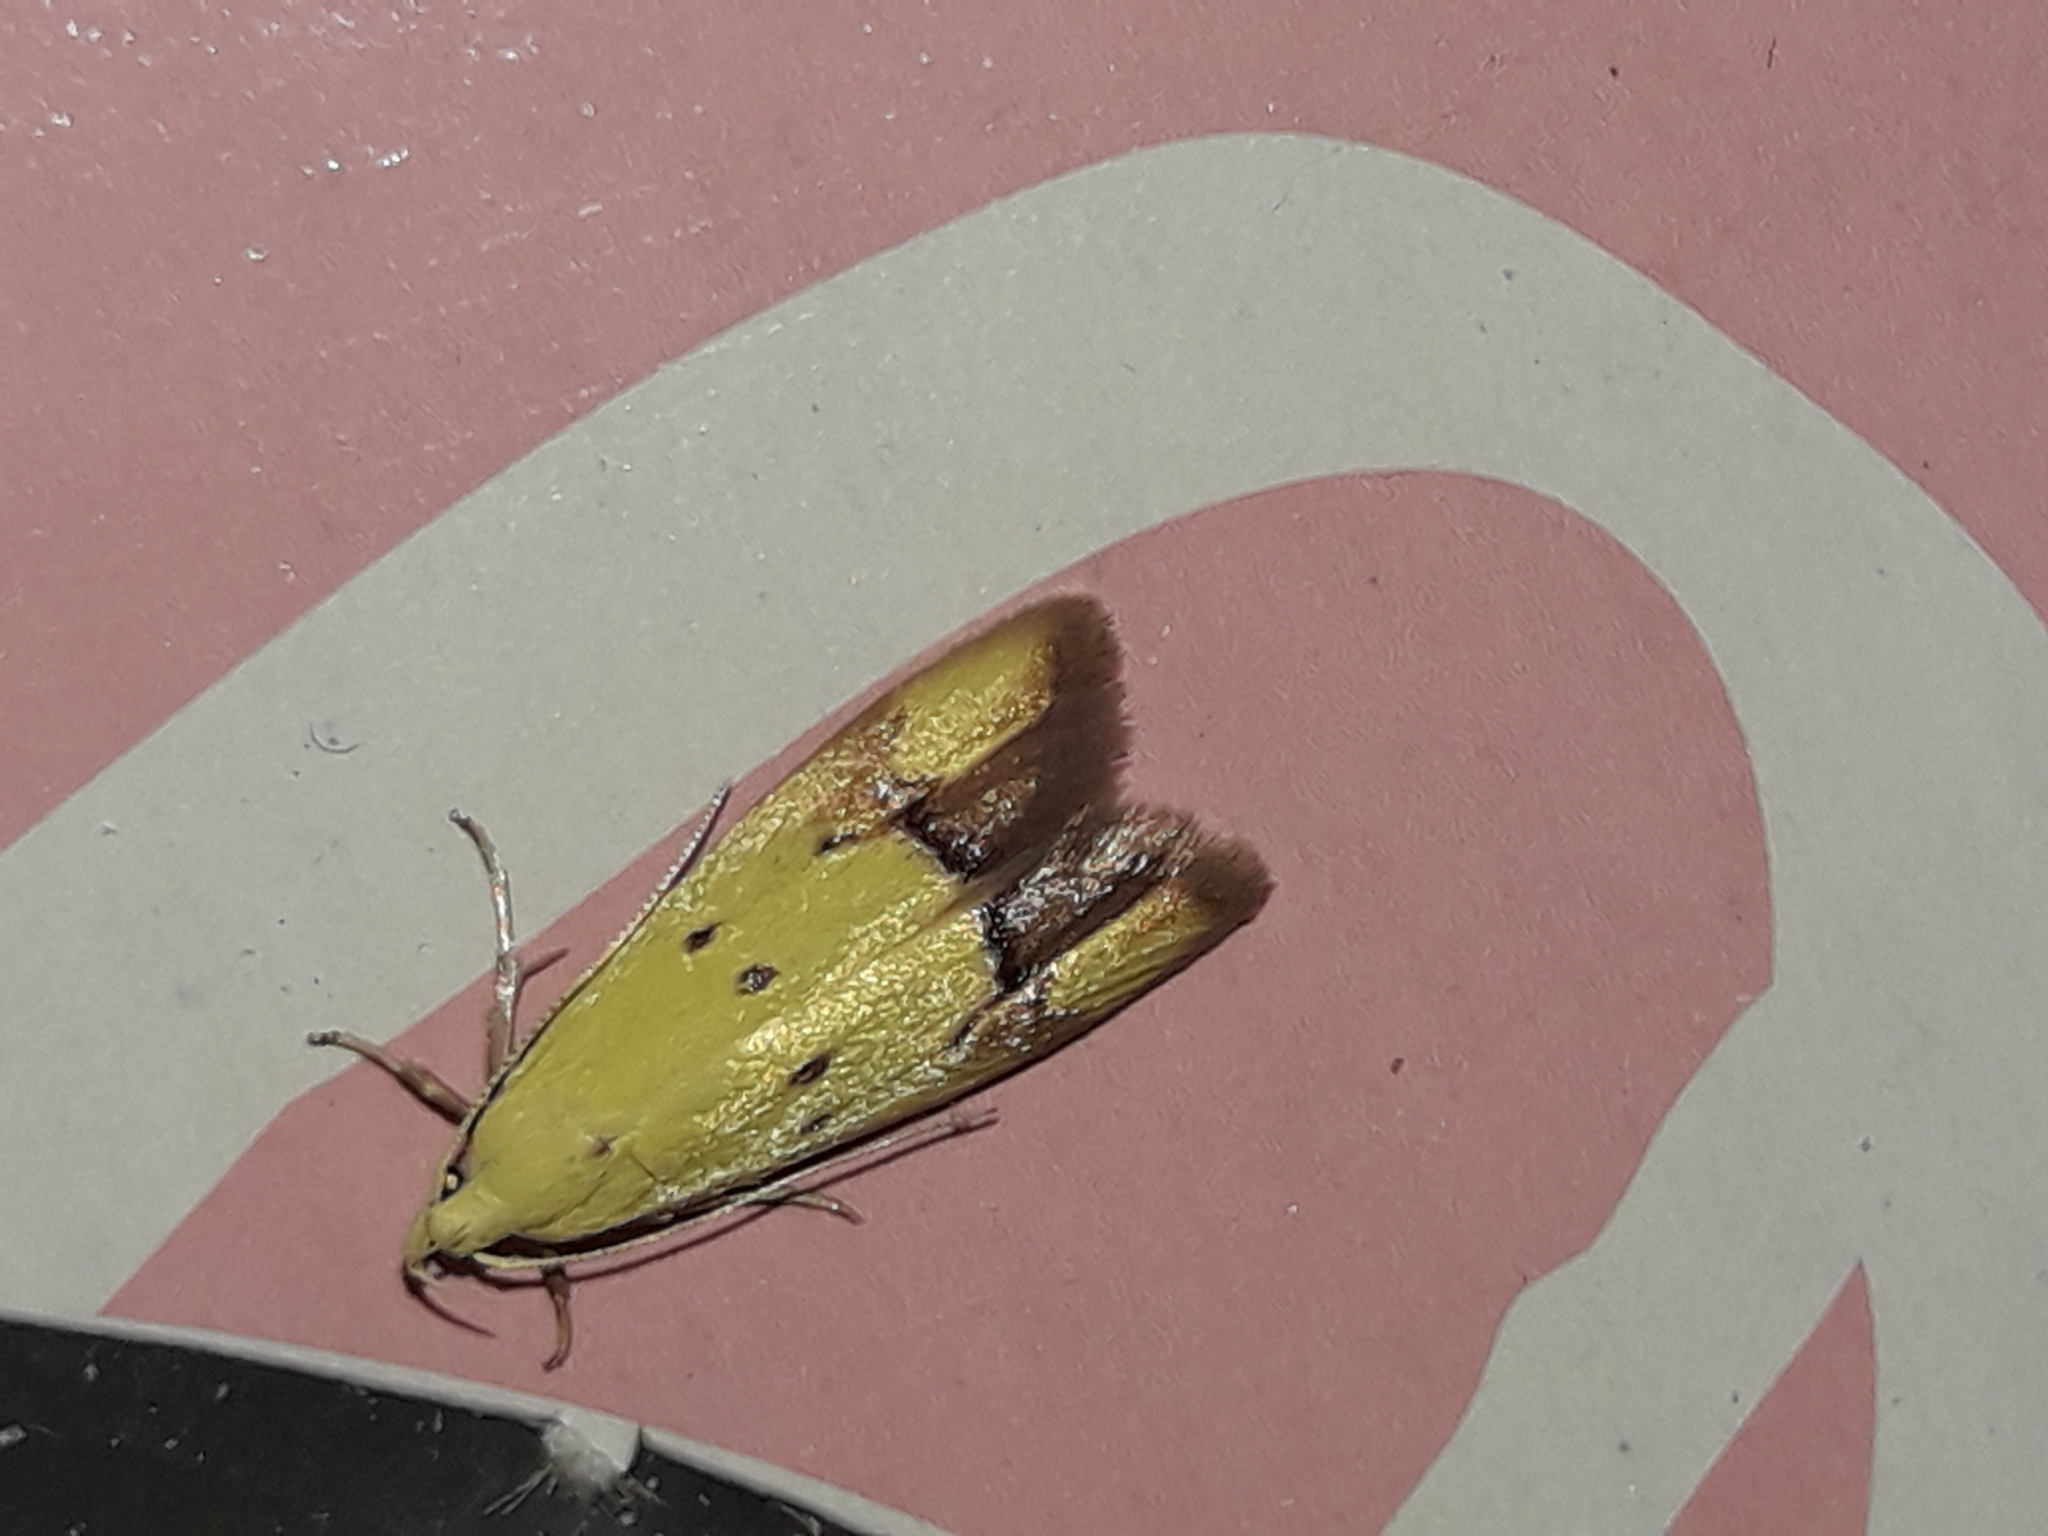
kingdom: Animalia
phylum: Arthropoda
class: Insecta
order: Lepidoptera
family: Oecophoridae
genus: Gymnobathra
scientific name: Gymnobathra flavidella
